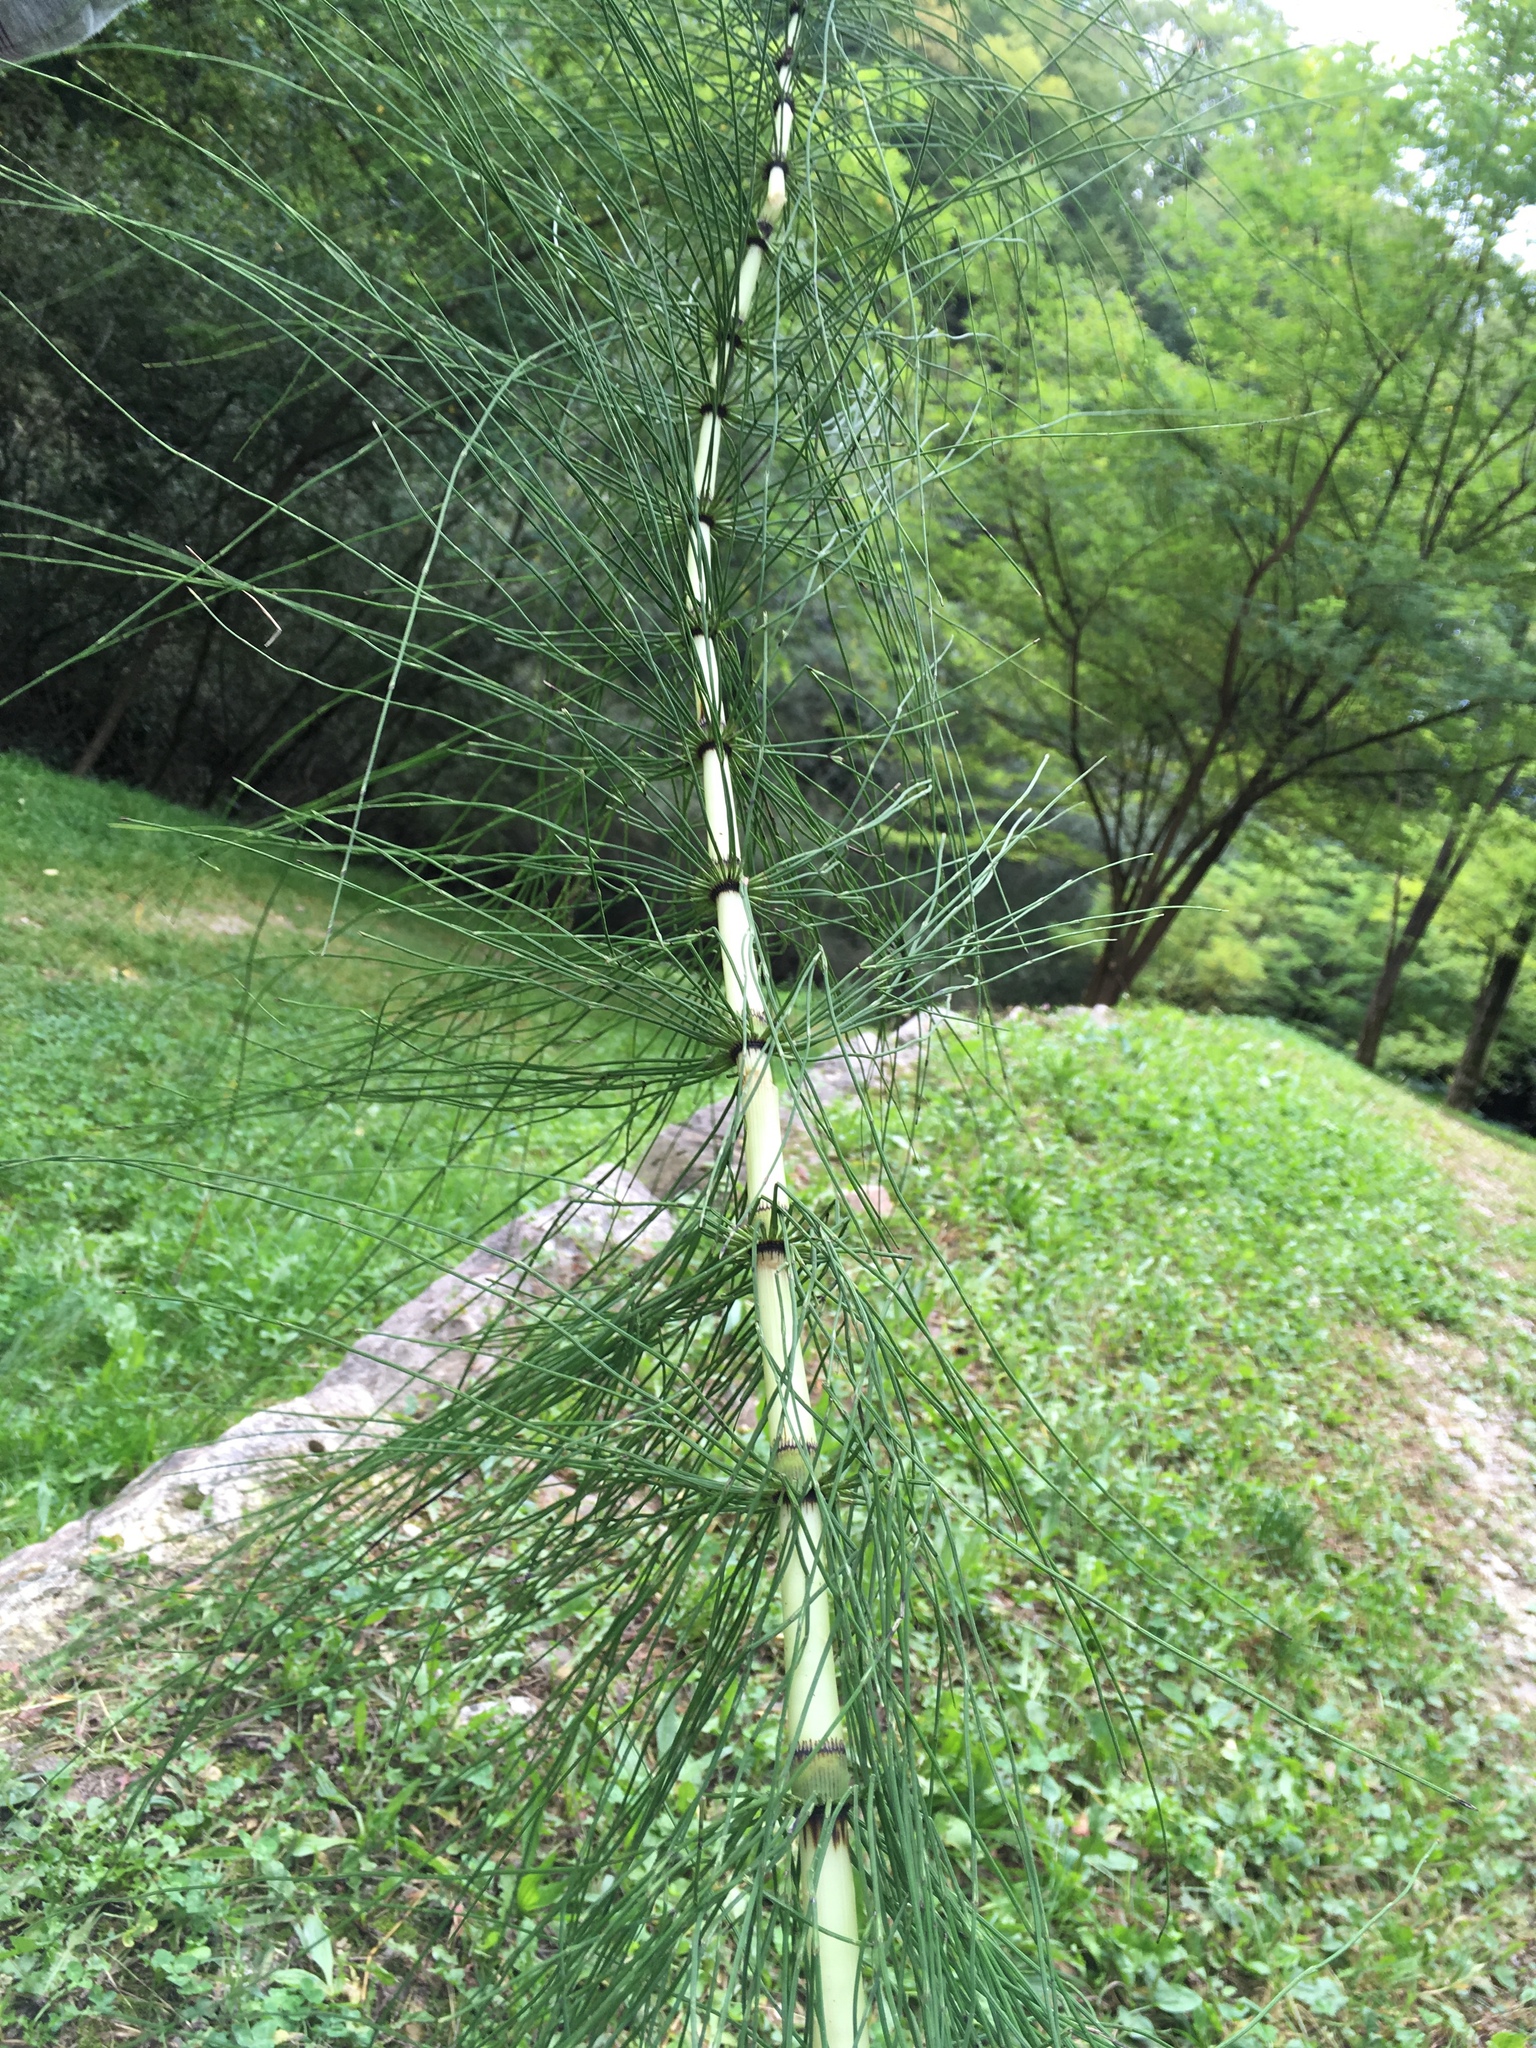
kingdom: Plantae
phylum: Tracheophyta
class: Polypodiopsida
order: Equisetales
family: Equisetaceae
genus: Equisetum
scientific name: Equisetum telmateia
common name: Great horsetail
